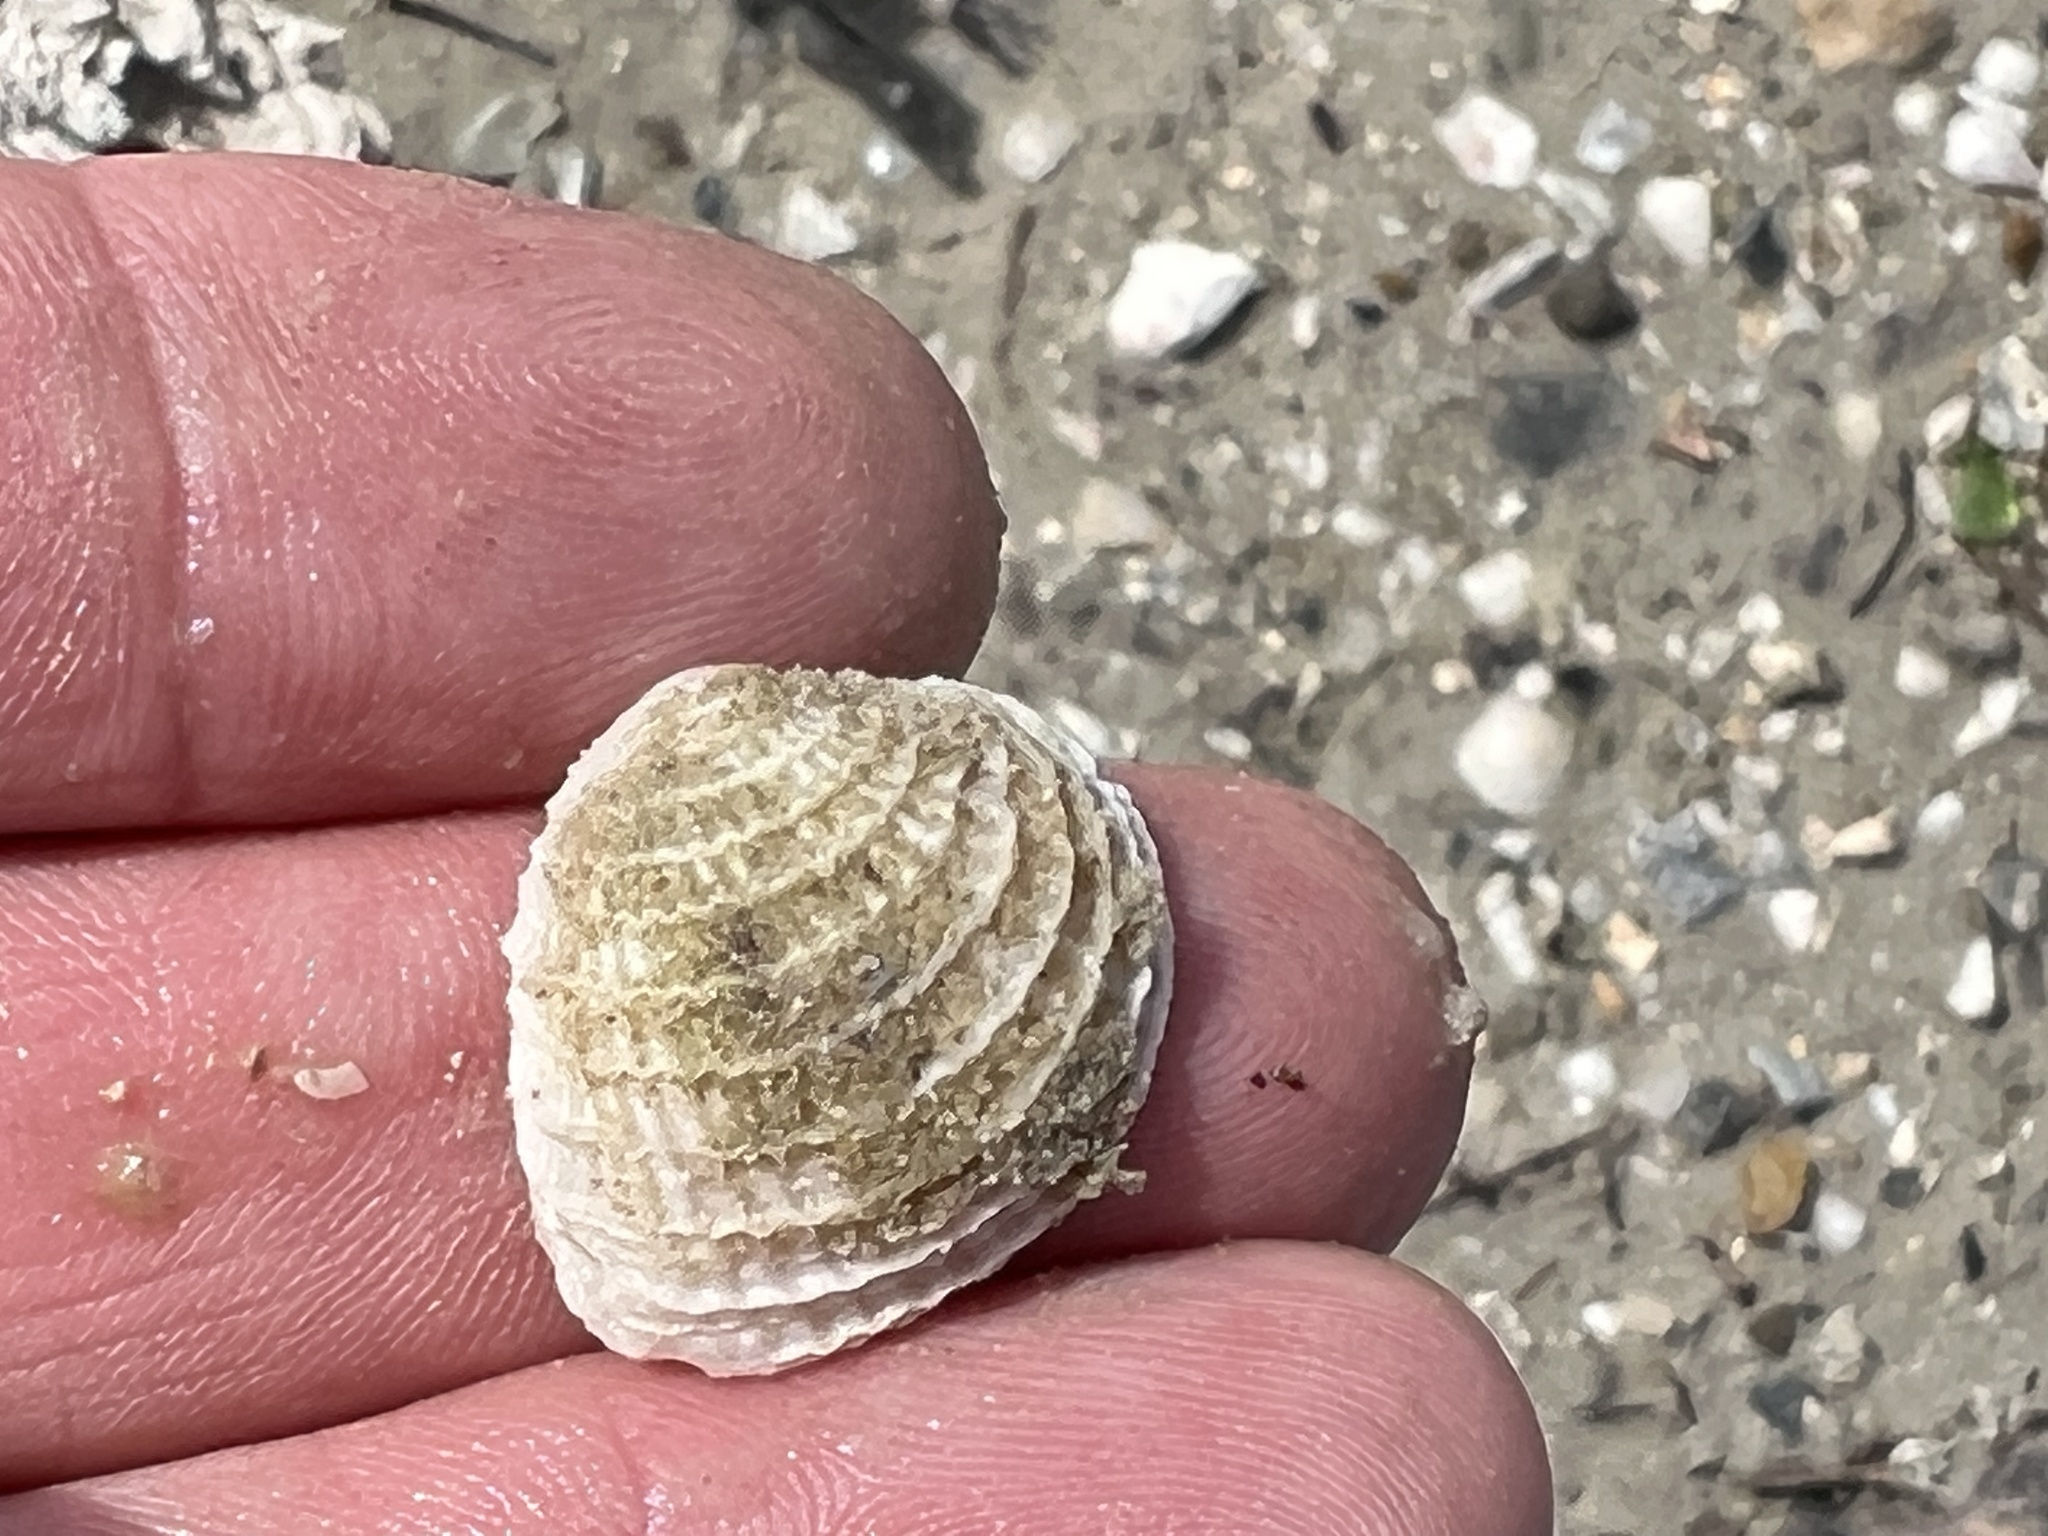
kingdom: Animalia
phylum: Mollusca
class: Bivalvia
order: Venerida
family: Veneridae
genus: Chione
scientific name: Chione elevata
